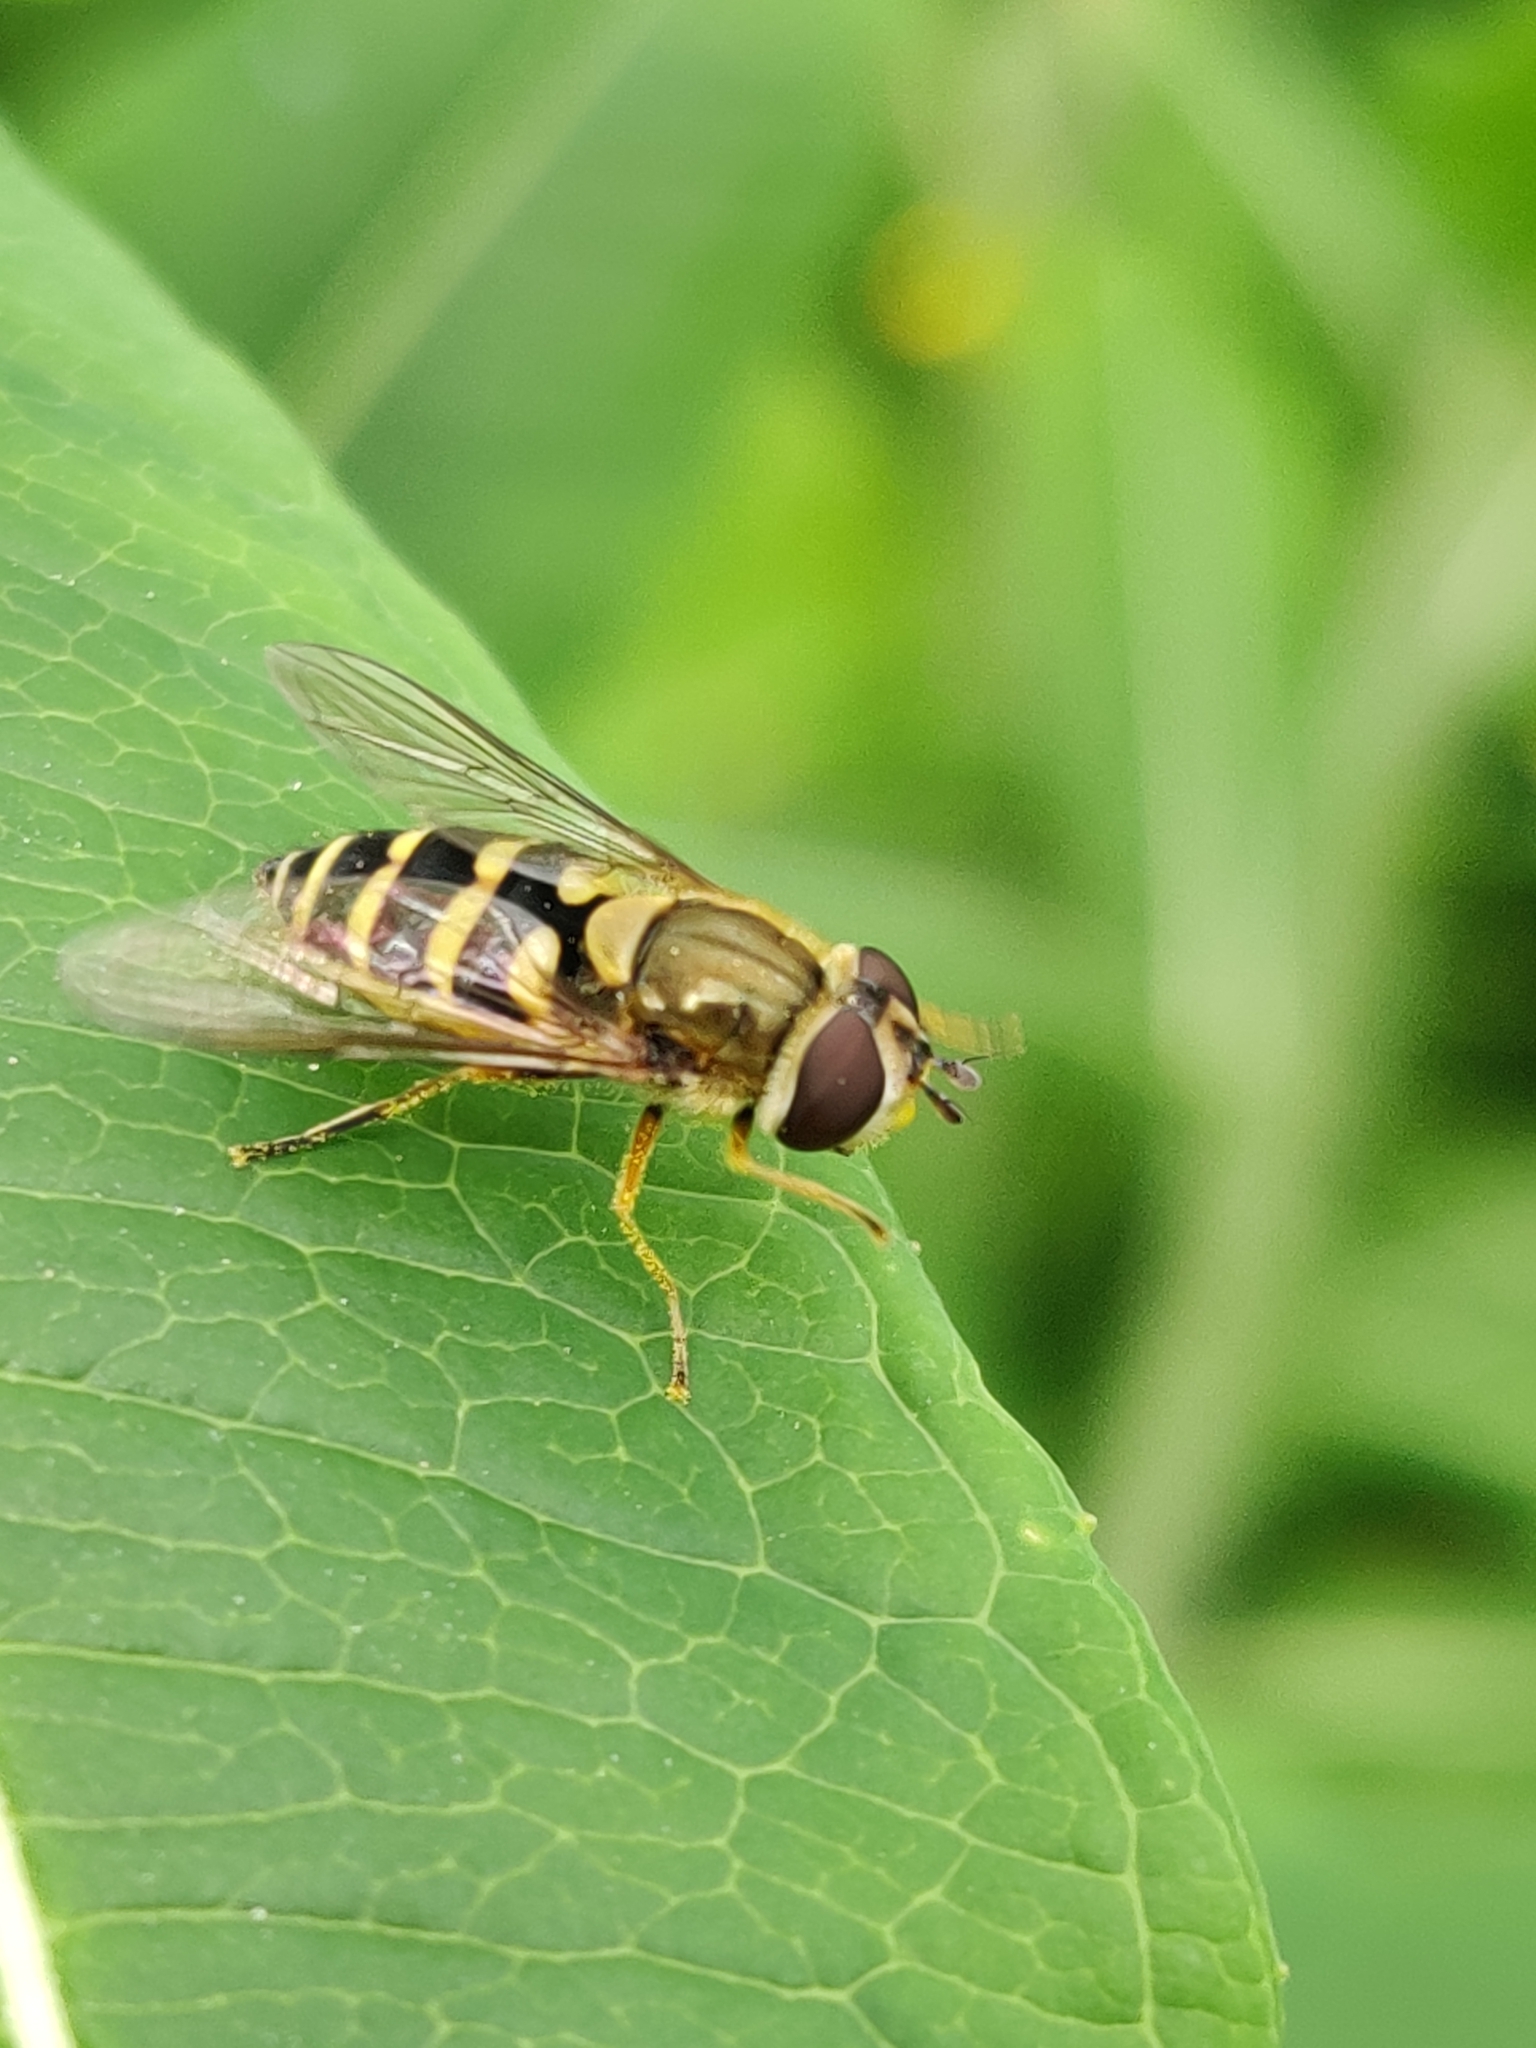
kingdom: Animalia
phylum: Arthropoda
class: Insecta
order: Diptera
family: Syrphidae
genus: Syrphus
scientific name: Syrphus
